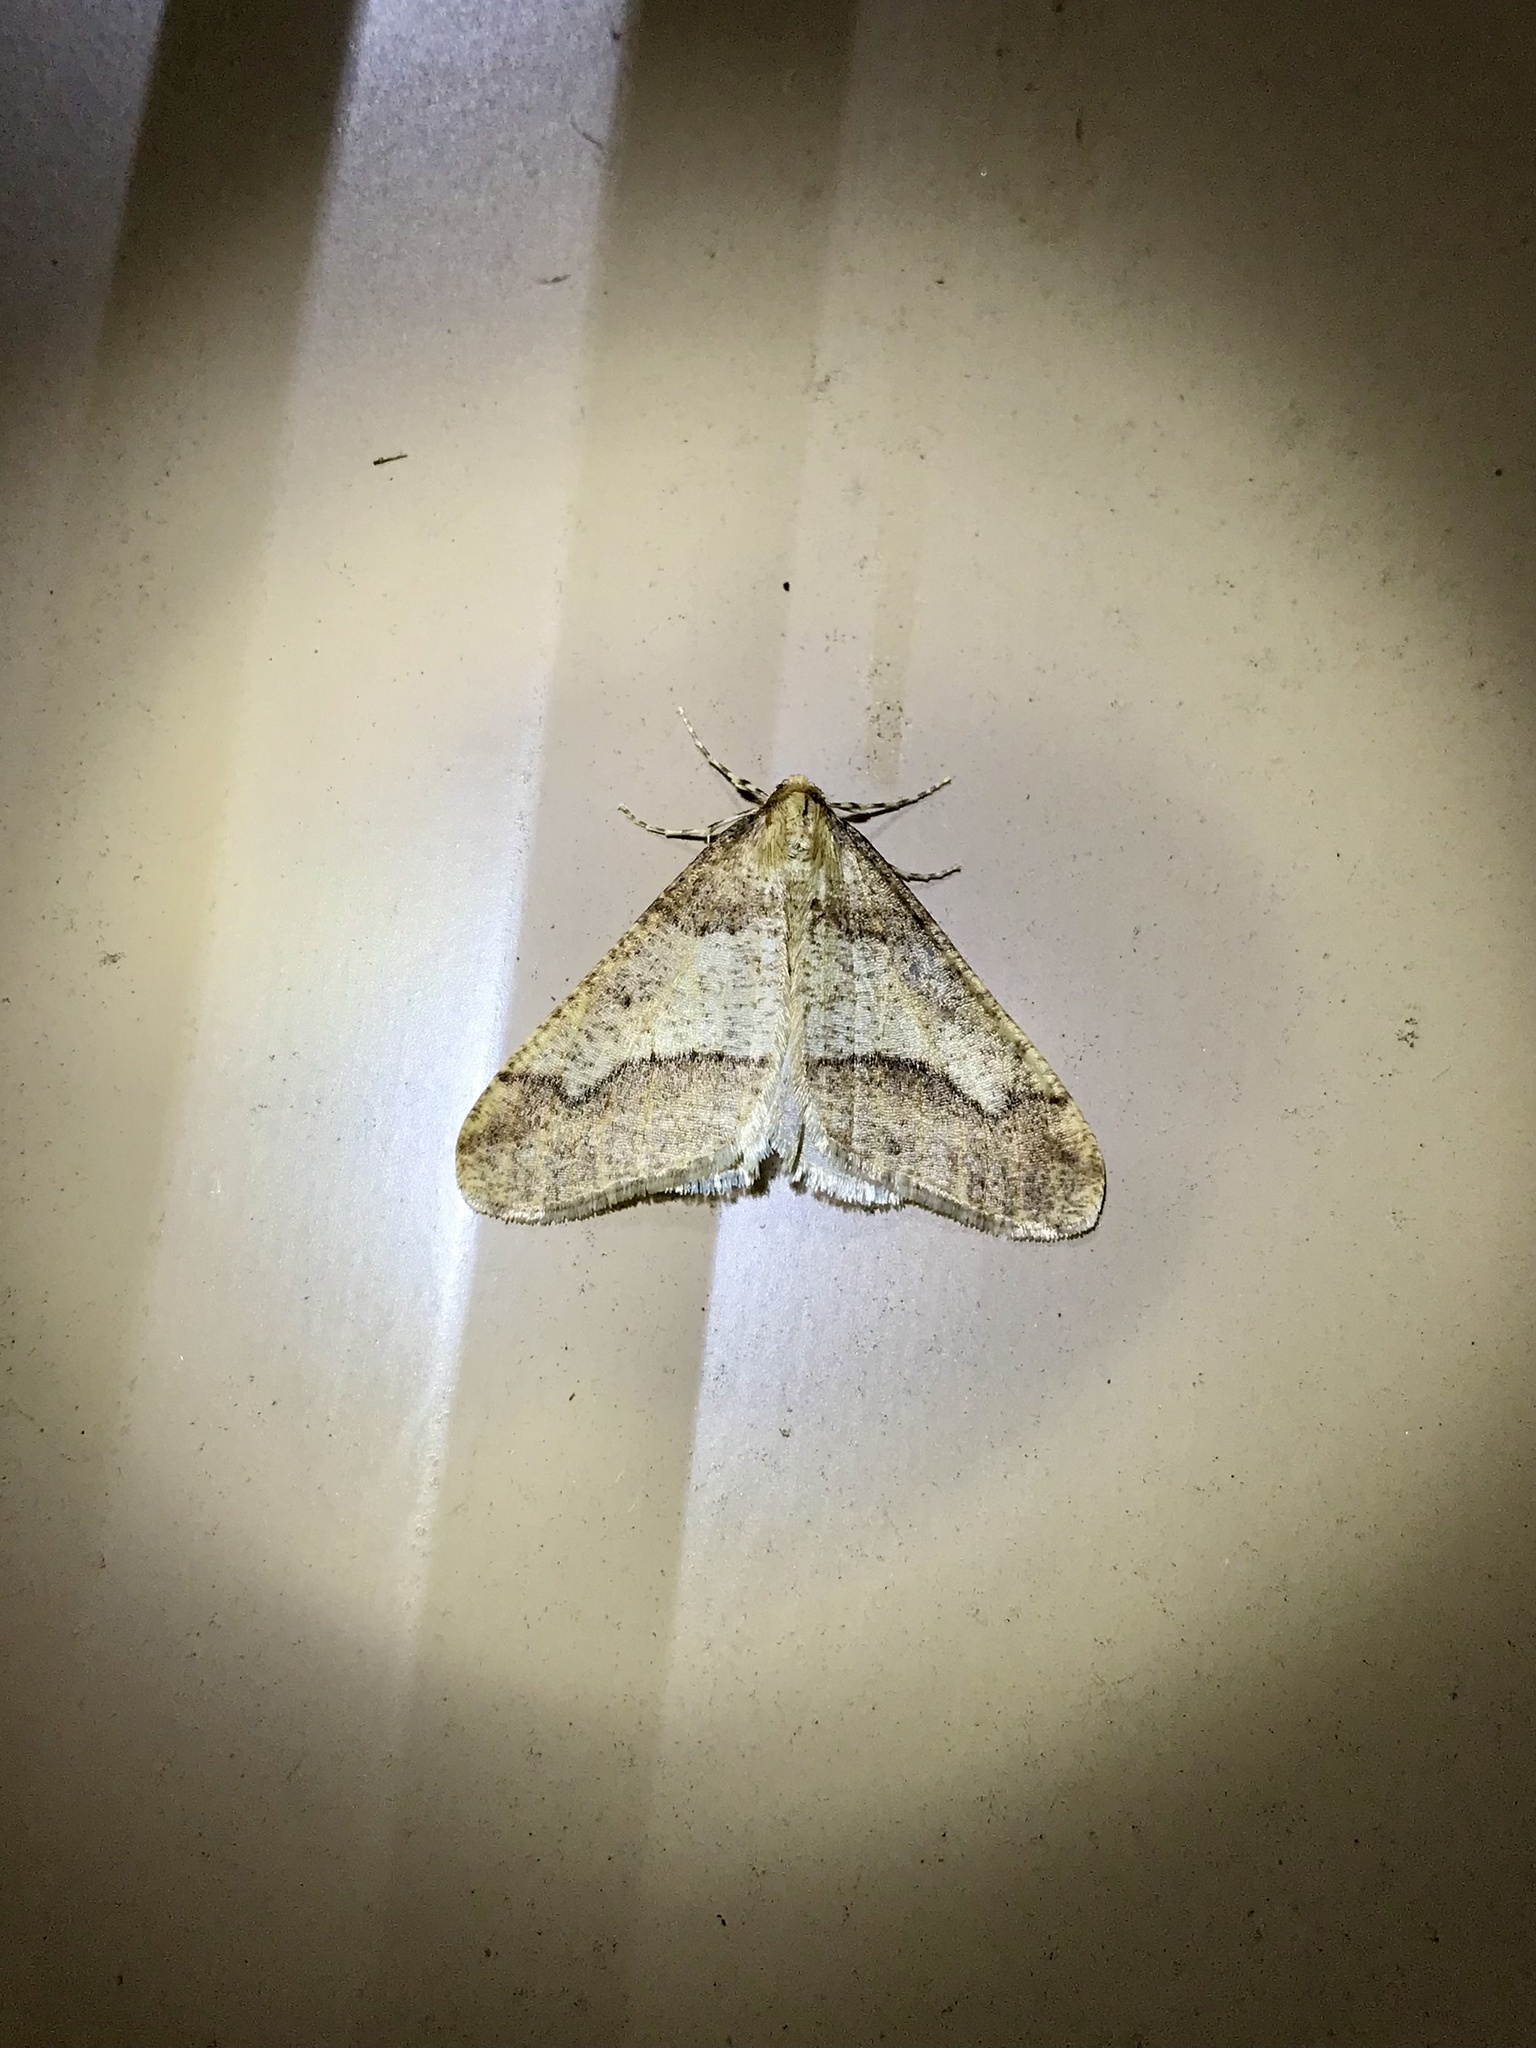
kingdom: Animalia
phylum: Arthropoda
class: Insecta
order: Lepidoptera
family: Geometridae
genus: Erannis
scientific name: Erannis tiliaria
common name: Linden looper
